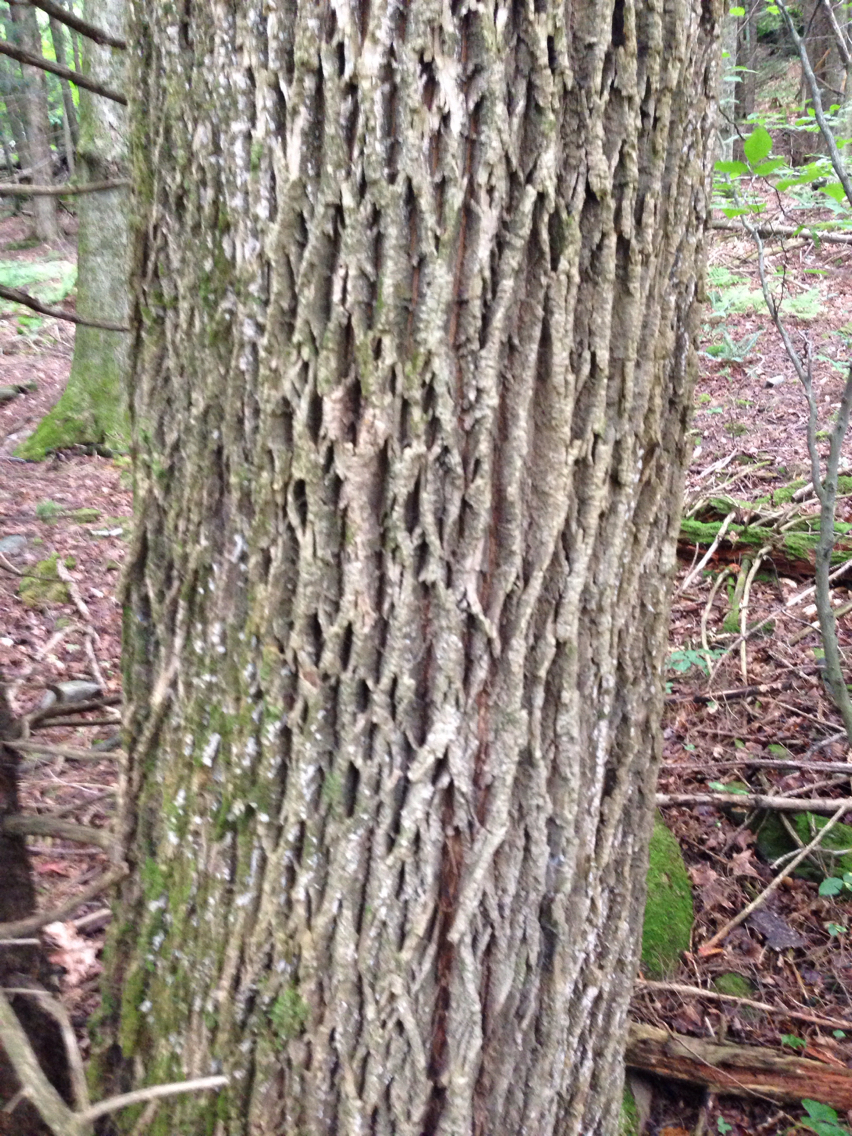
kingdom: Plantae
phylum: Tracheophyta
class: Magnoliopsida
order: Lamiales
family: Oleaceae
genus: Fraxinus
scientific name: Fraxinus americana
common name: White ash
